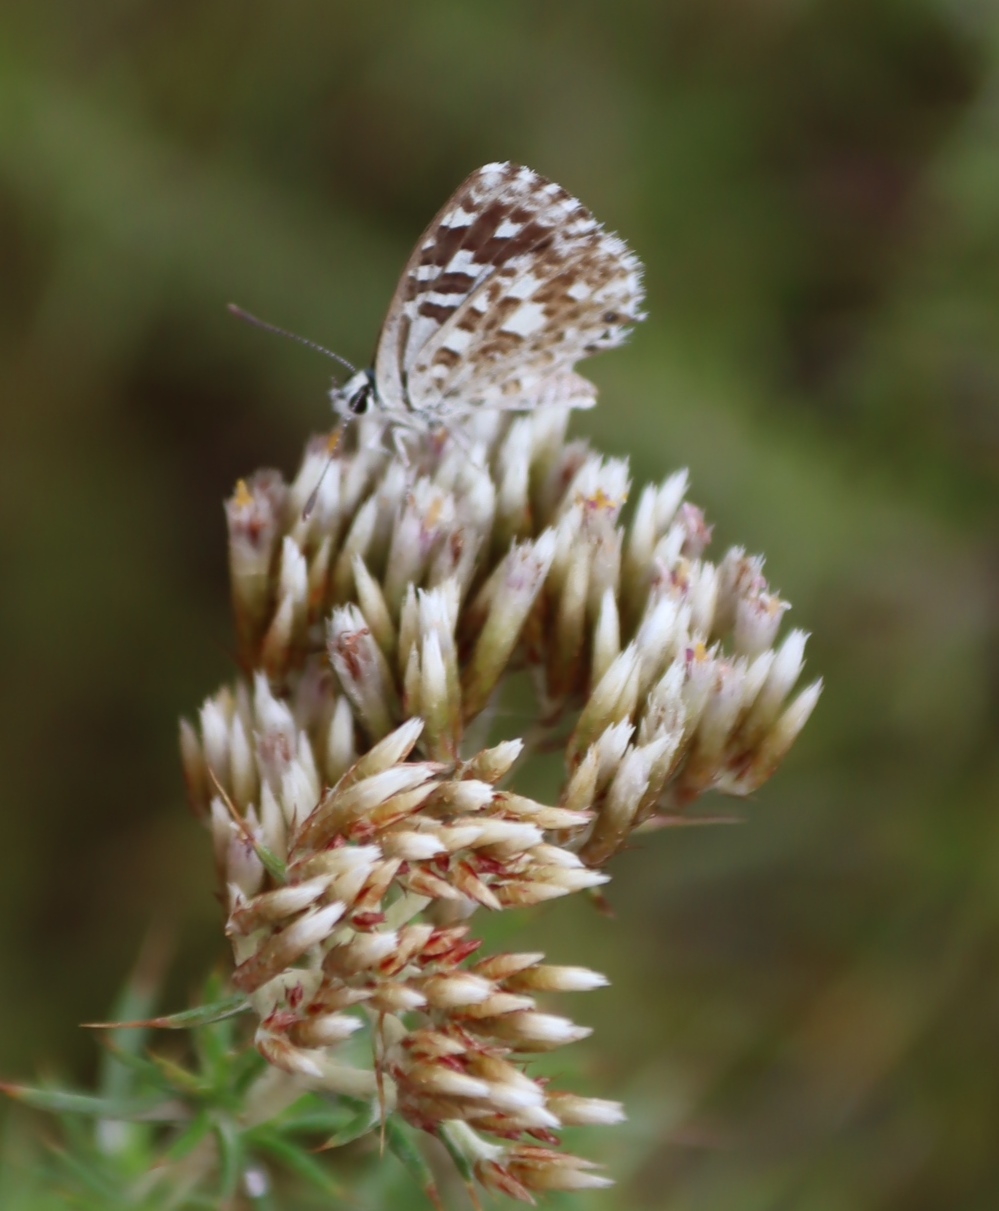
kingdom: Animalia
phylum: Arthropoda
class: Insecta
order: Lepidoptera
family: Lycaenidae
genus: Tarucus
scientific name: Tarucus thespis
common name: Vivid dotted blue
